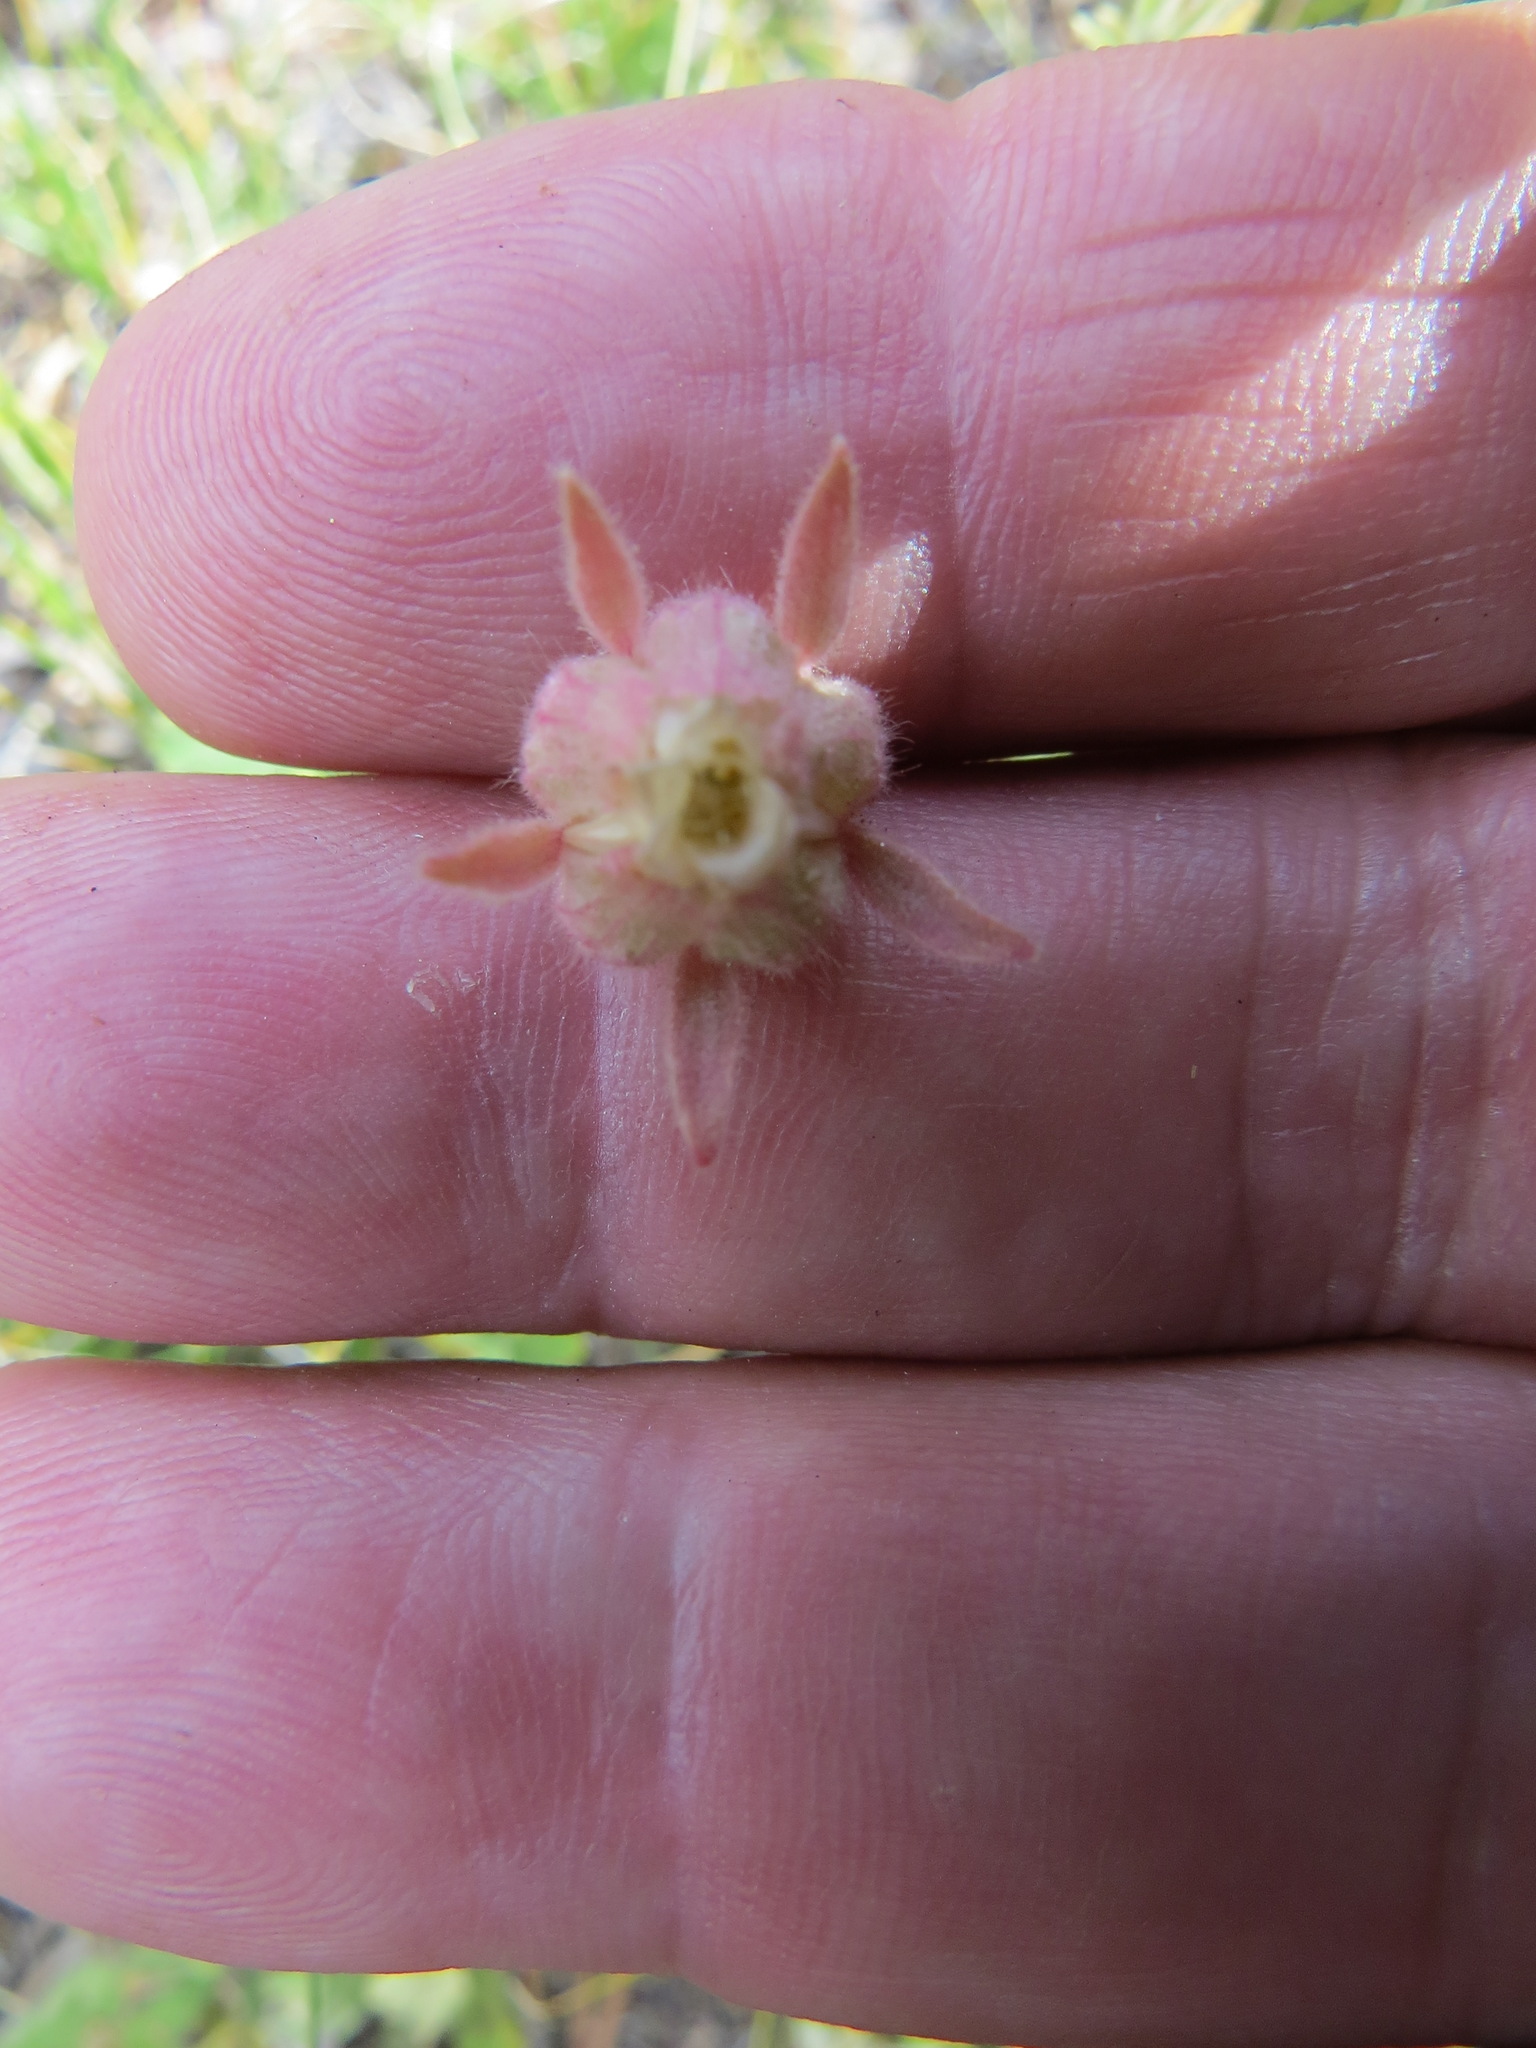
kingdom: Plantae
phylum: Tracheophyta
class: Magnoliopsida
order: Rosales
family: Rosaceae
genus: Geum
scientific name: Geum triflorum
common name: Old man's whiskers
